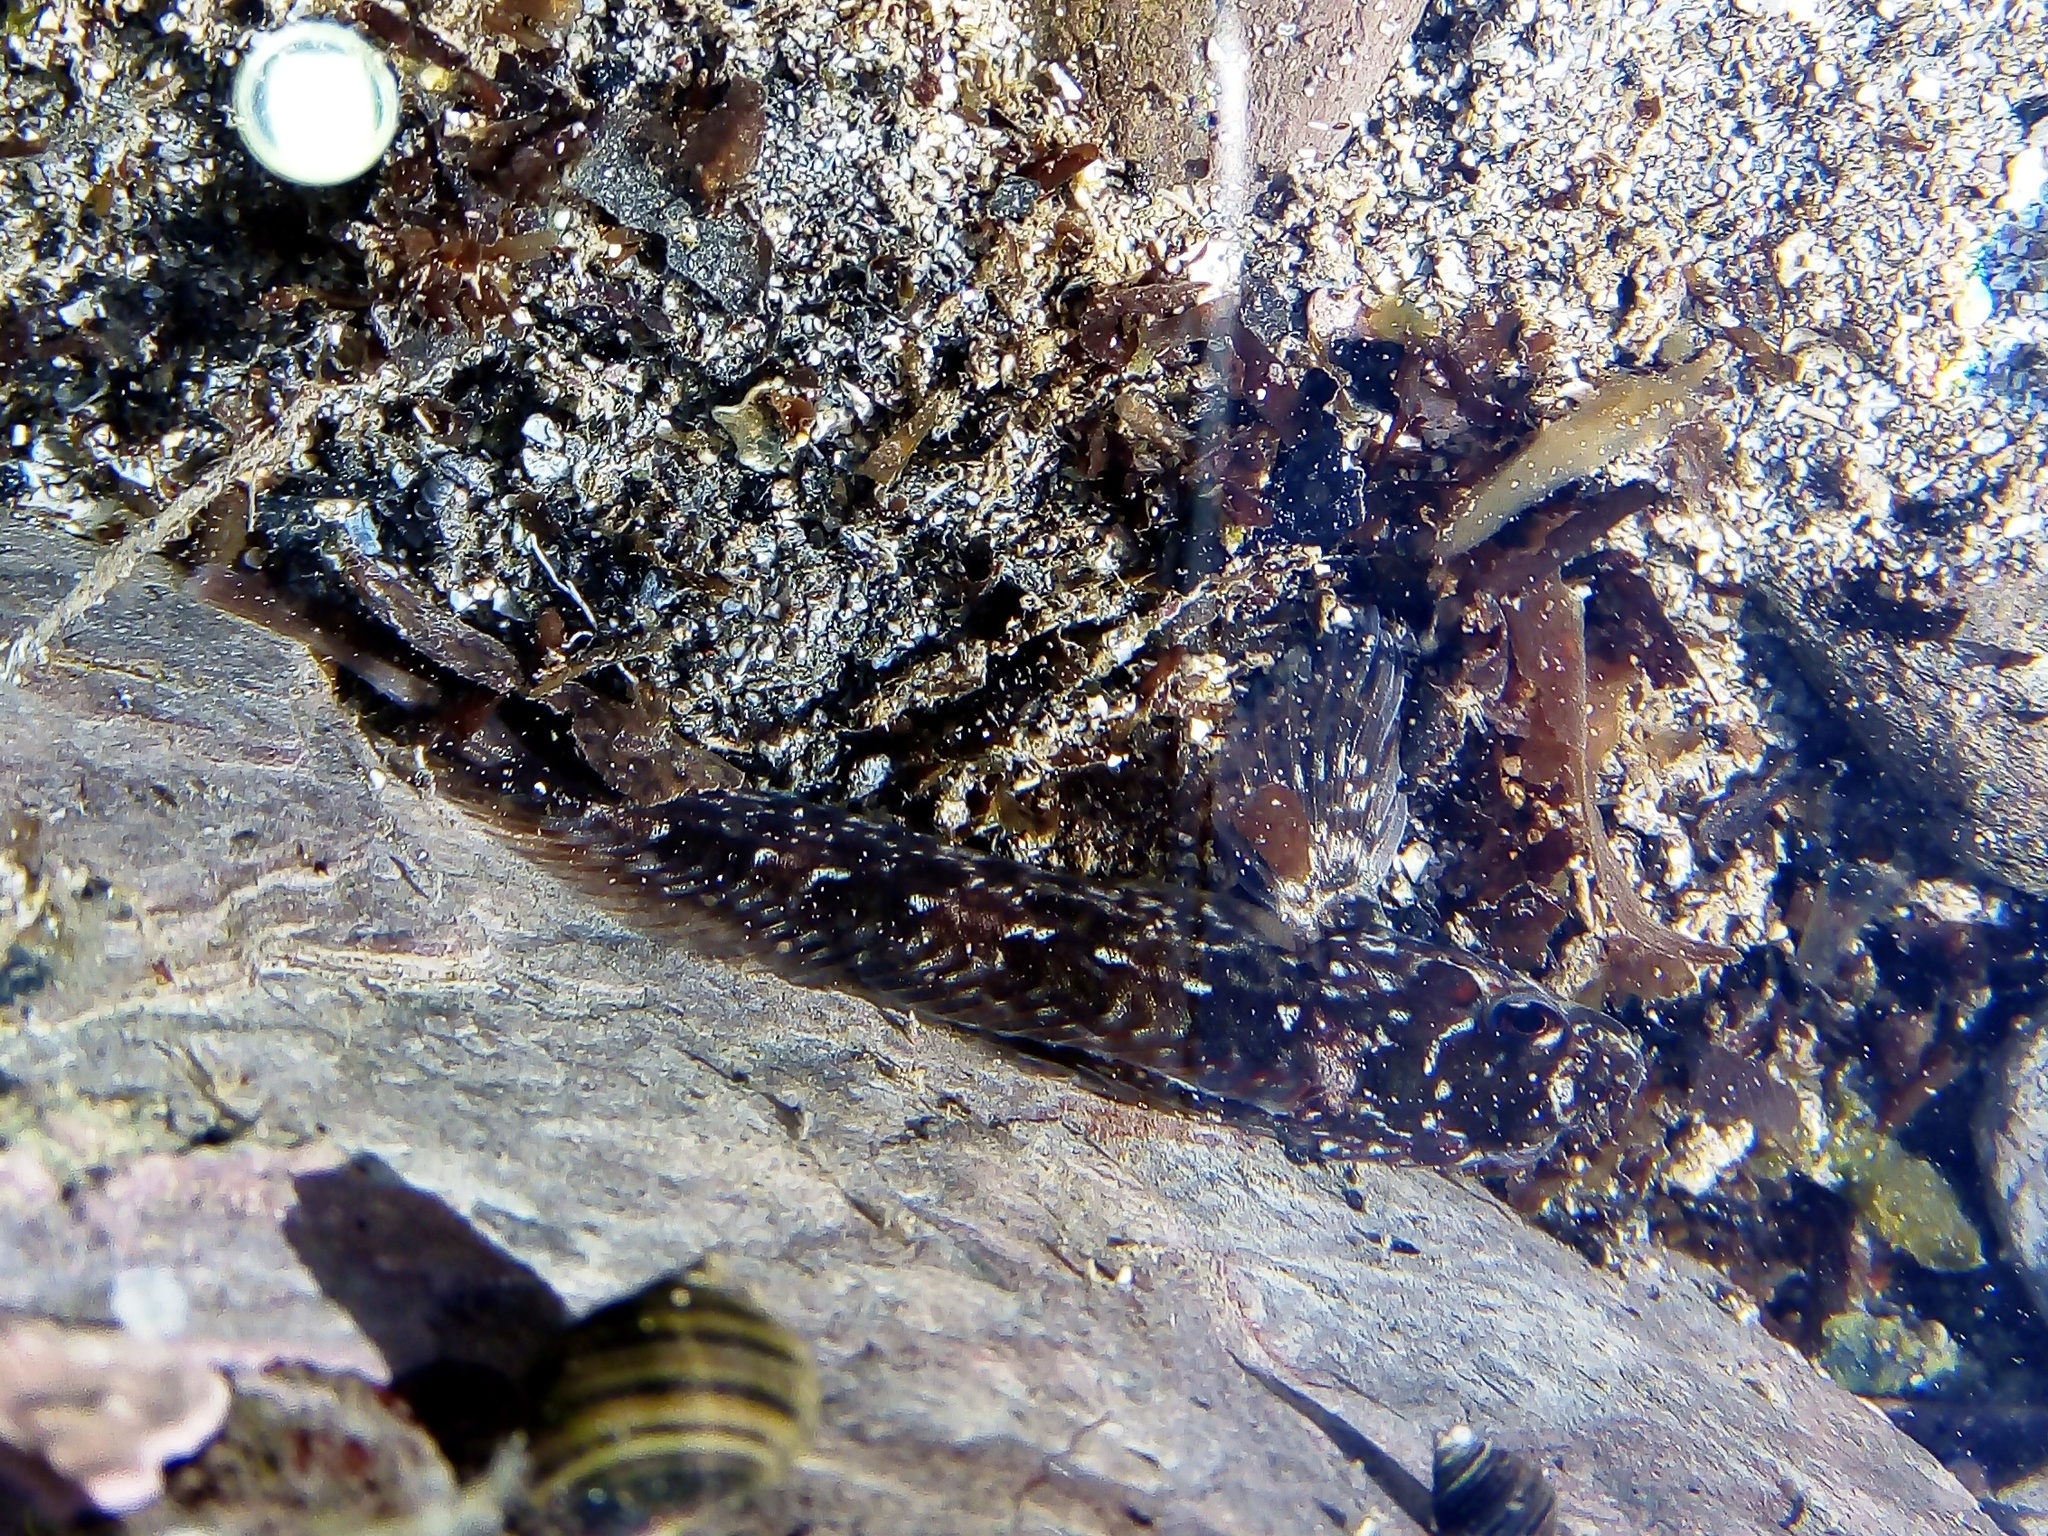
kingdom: Animalia
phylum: Chordata
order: Perciformes
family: Blenniidae
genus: Lipophrys
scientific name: Lipophrys pholis
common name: Shanny
